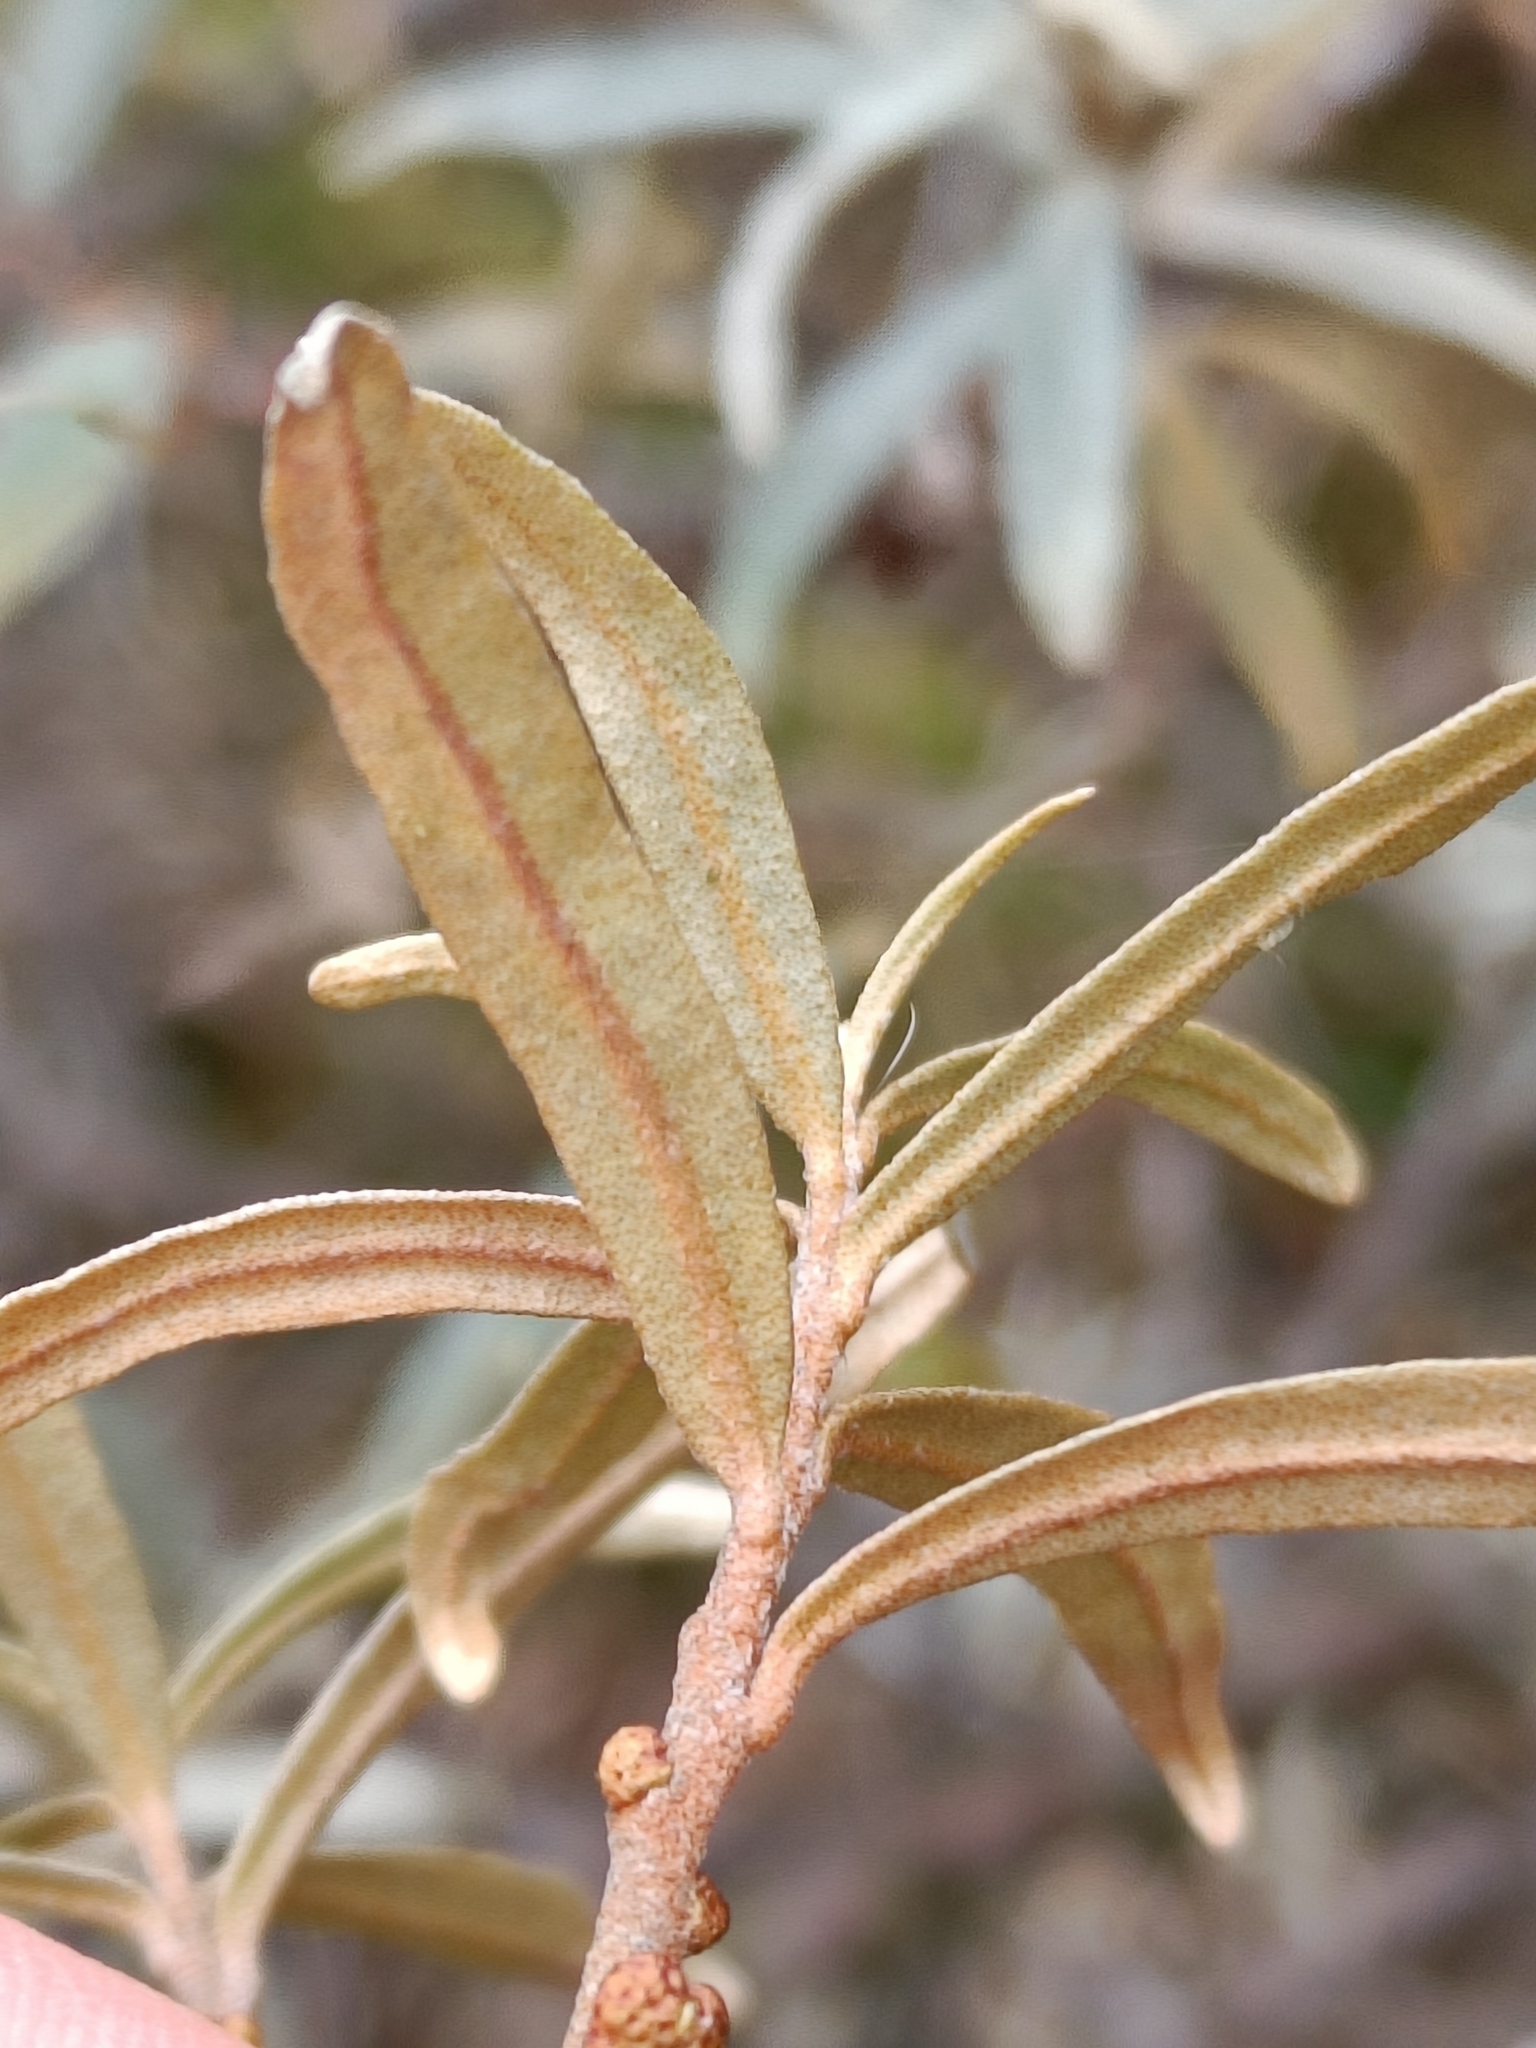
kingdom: Plantae
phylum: Tracheophyta
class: Magnoliopsida
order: Rosales
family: Elaeagnaceae
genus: Hippophae
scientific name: Hippophae rhamnoides
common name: Sea-buckthorn
